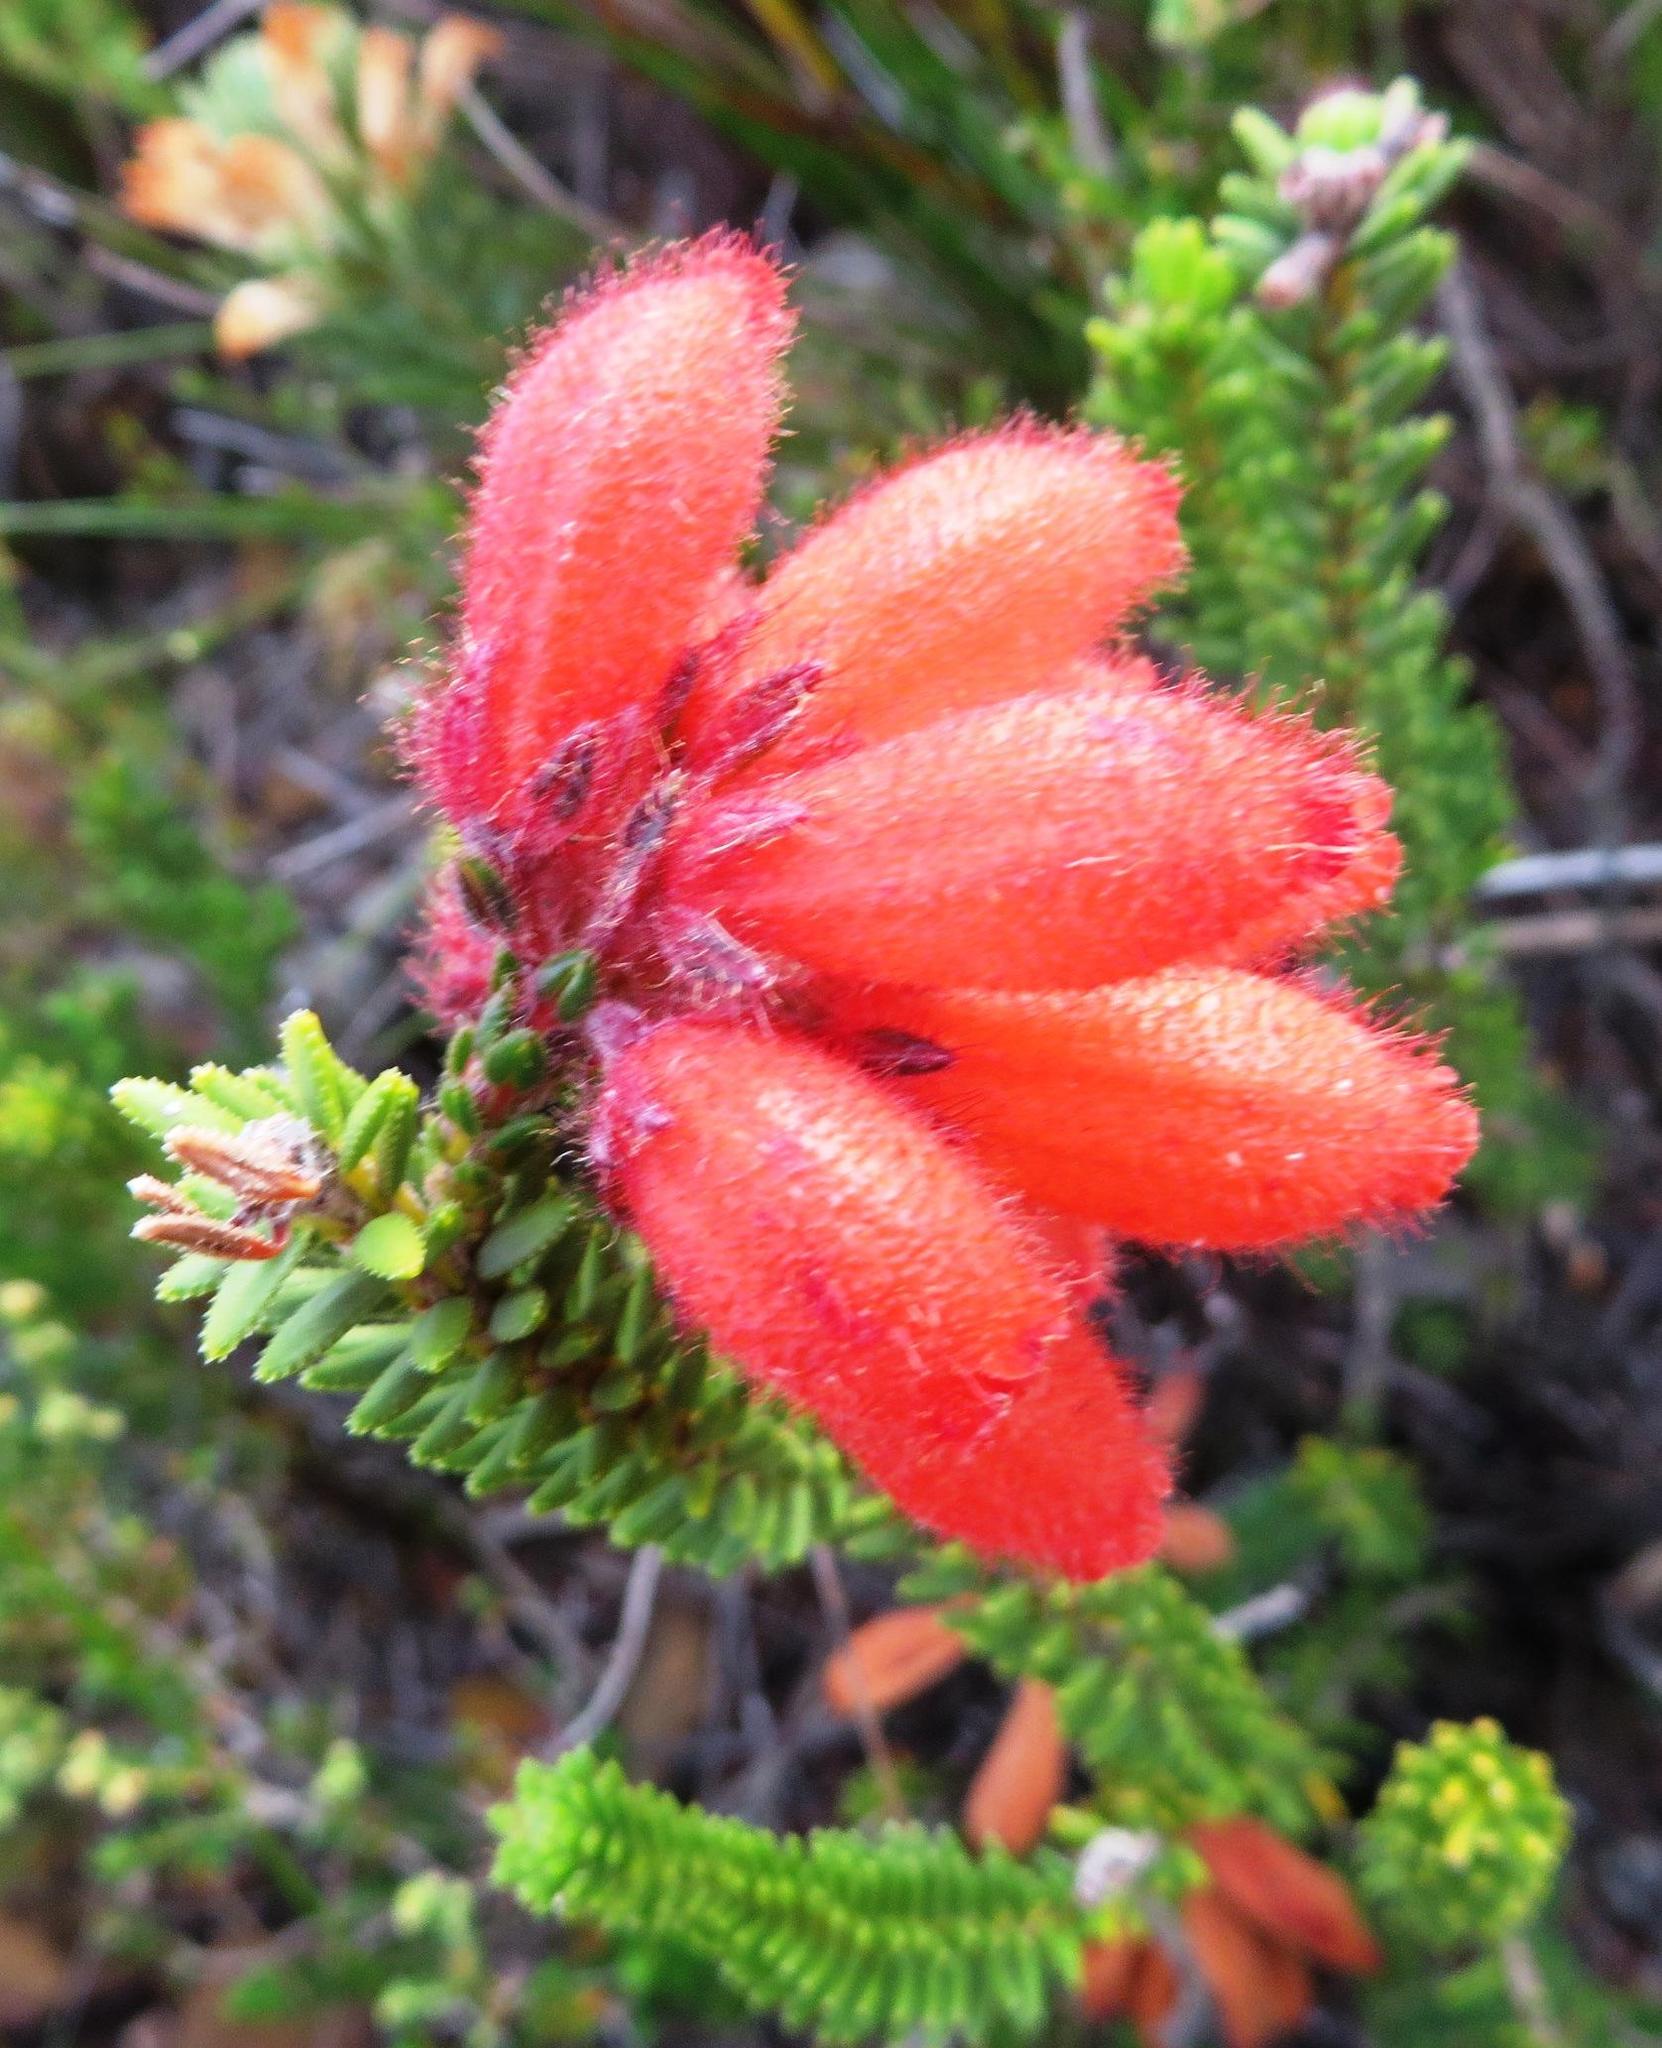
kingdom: Plantae
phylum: Tracheophyta
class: Magnoliopsida
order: Ericales
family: Ericaceae
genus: Erica
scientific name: Erica cerinthoides
